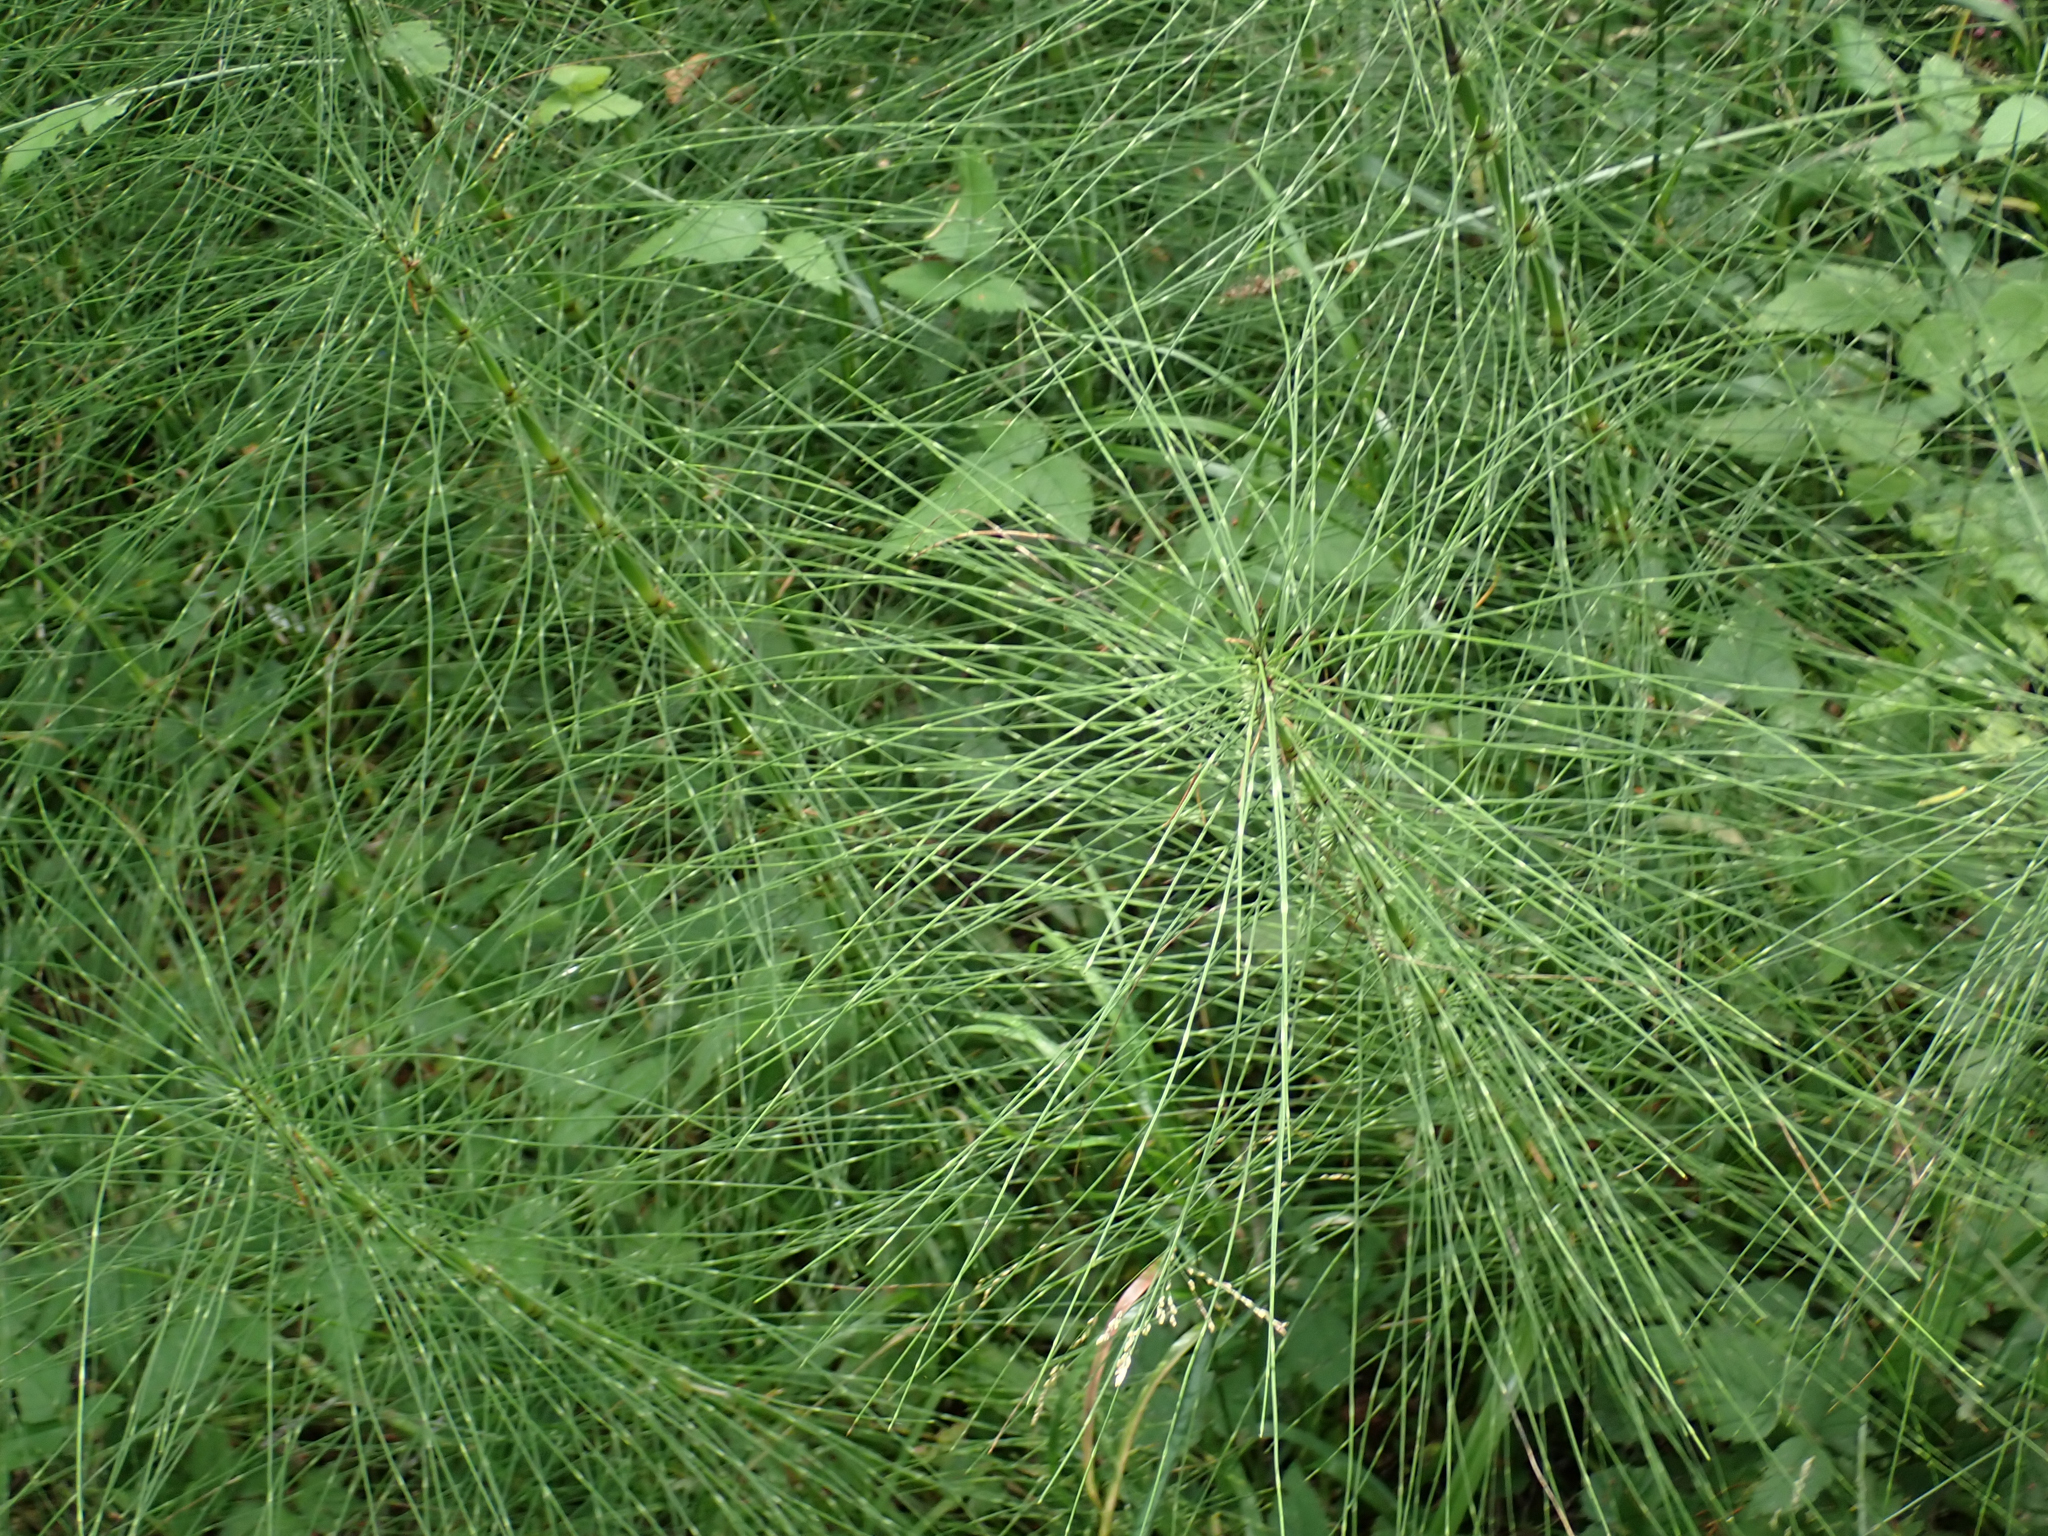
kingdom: Plantae
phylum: Tracheophyta
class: Polypodiopsida
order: Equisetales
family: Equisetaceae
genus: Equisetum
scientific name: Equisetum telmateia
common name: Great horsetail
